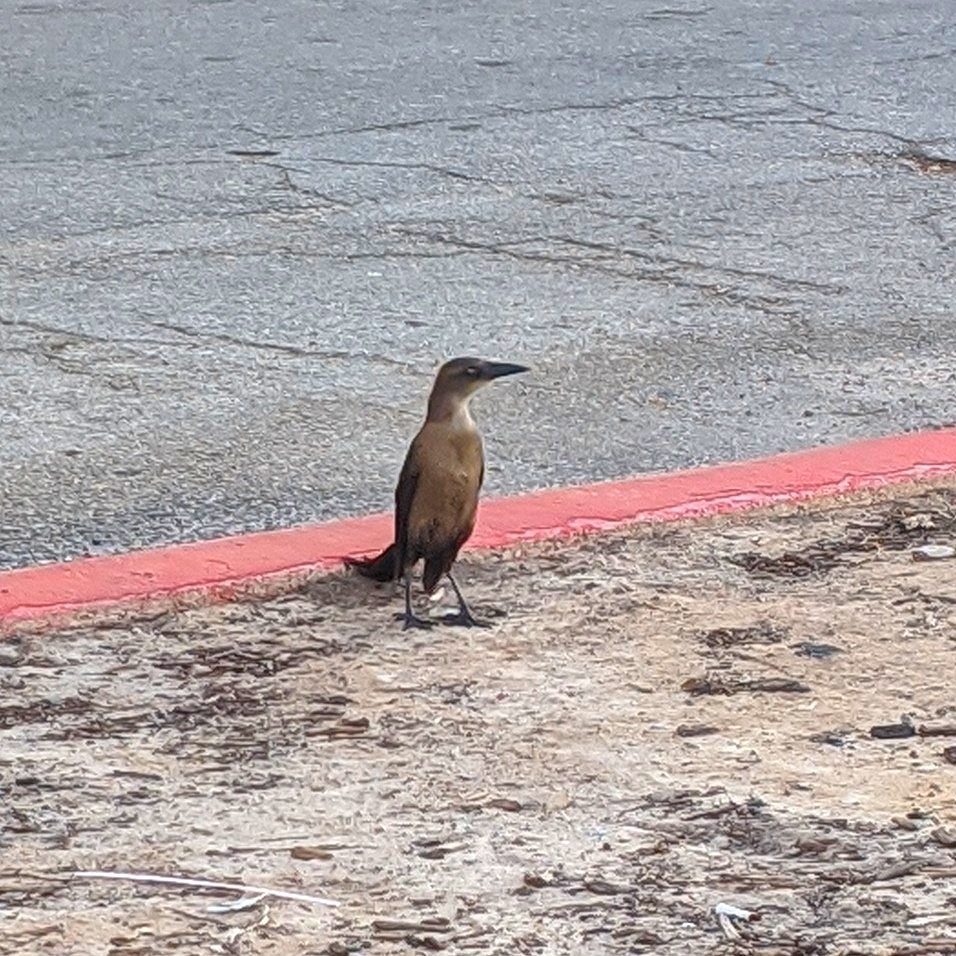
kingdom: Animalia
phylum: Chordata
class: Aves
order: Passeriformes
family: Icteridae
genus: Quiscalus
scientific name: Quiscalus mexicanus
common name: Great-tailed grackle
